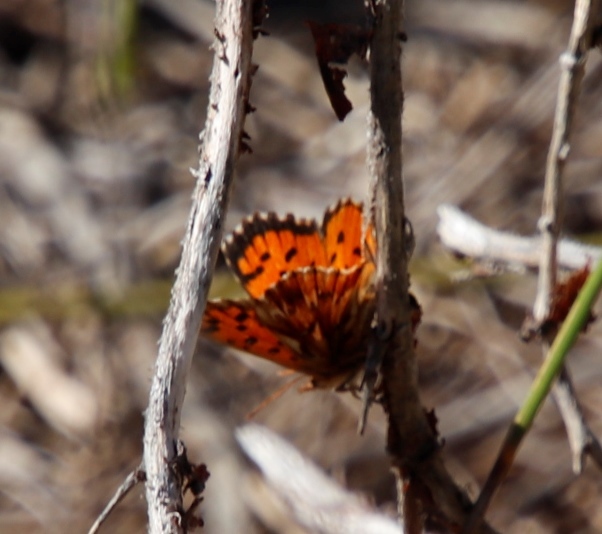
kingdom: Animalia
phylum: Arthropoda
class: Insecta
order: Lepidoptera
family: Lycaenidae
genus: Chrysoritis
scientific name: Chrysoritis
